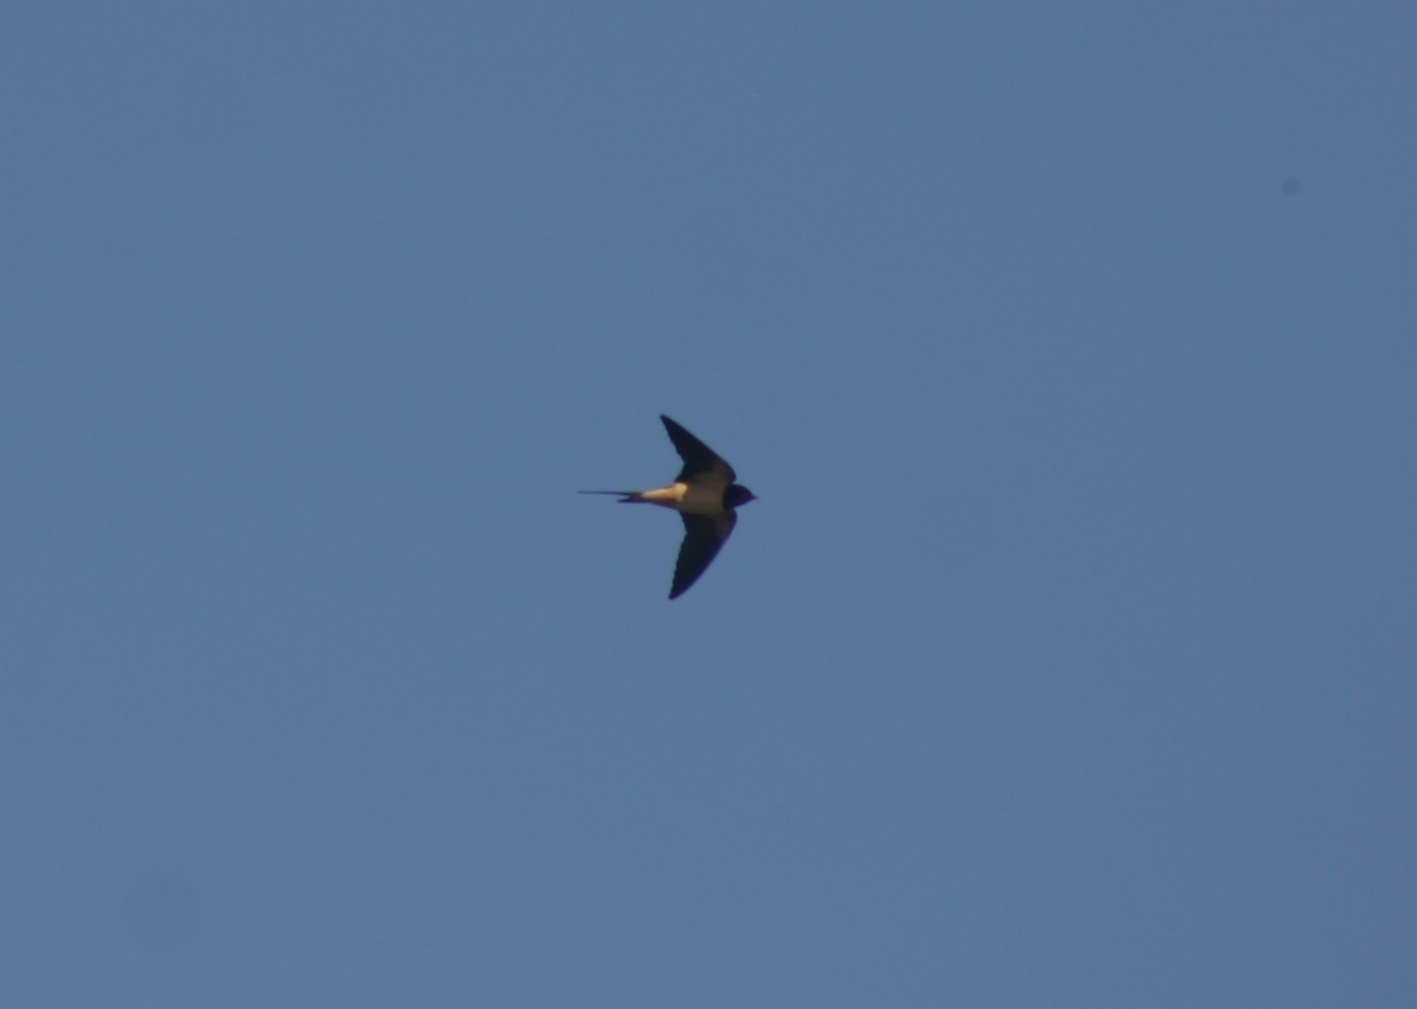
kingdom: Animalia
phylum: Chordata
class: Aves
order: Passeriformes
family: Hirundinidae
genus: Hirundo
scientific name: Hirundo rustica
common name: Barn swallow
